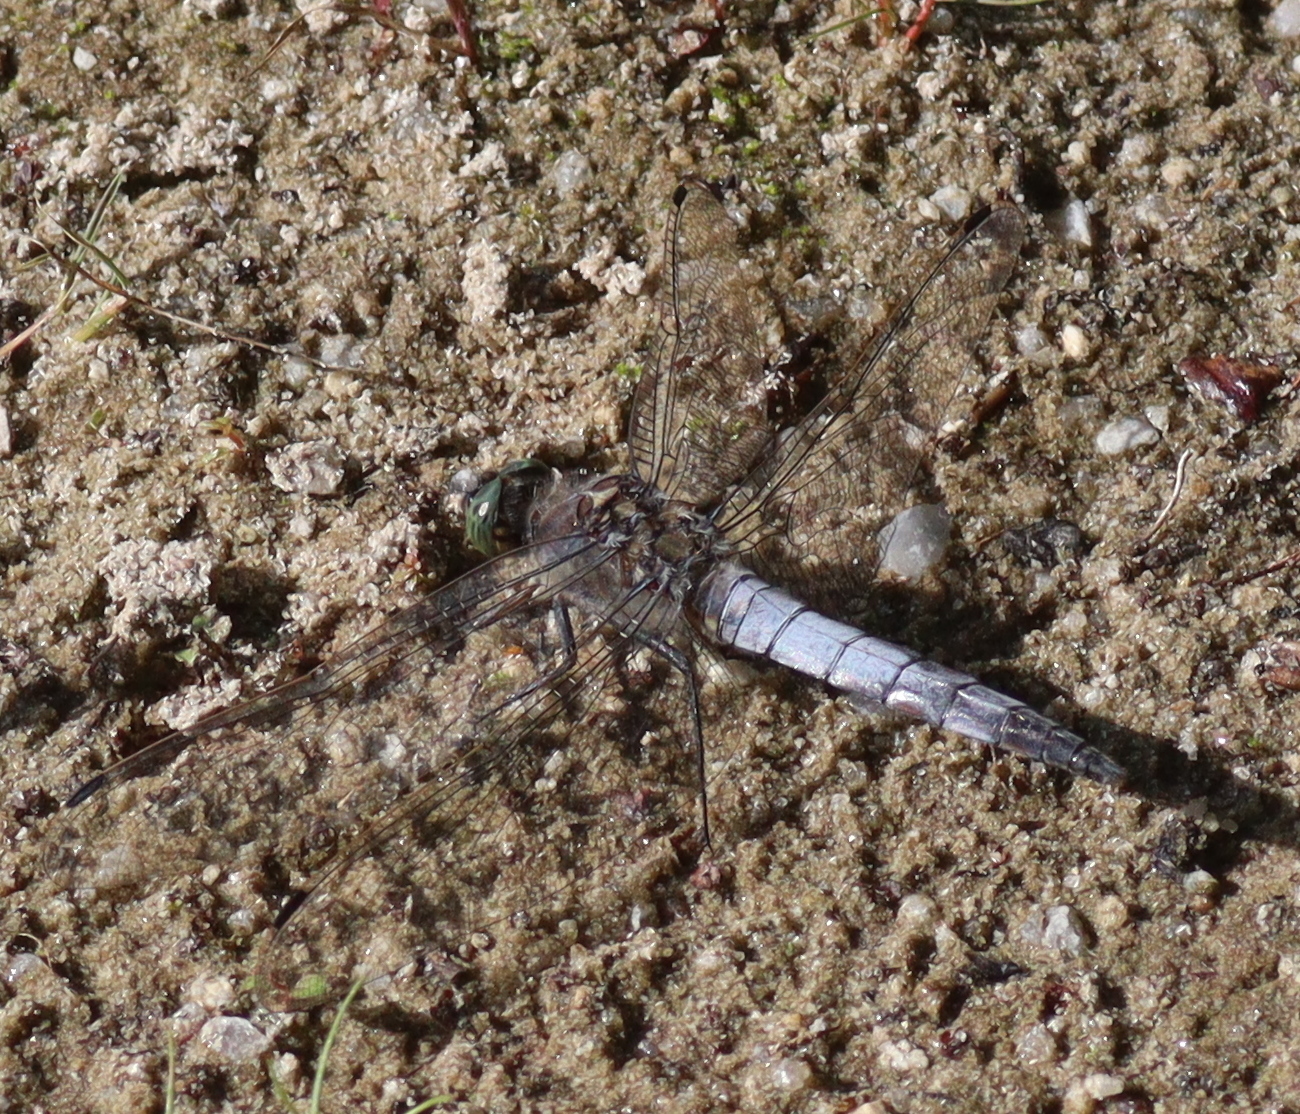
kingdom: Animalia
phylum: Arthropoda
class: Insecta
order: Odonata
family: Libellulidae
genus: Orthetrum
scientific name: Orthetrum cancellatum
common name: Black-tailed skimmer
